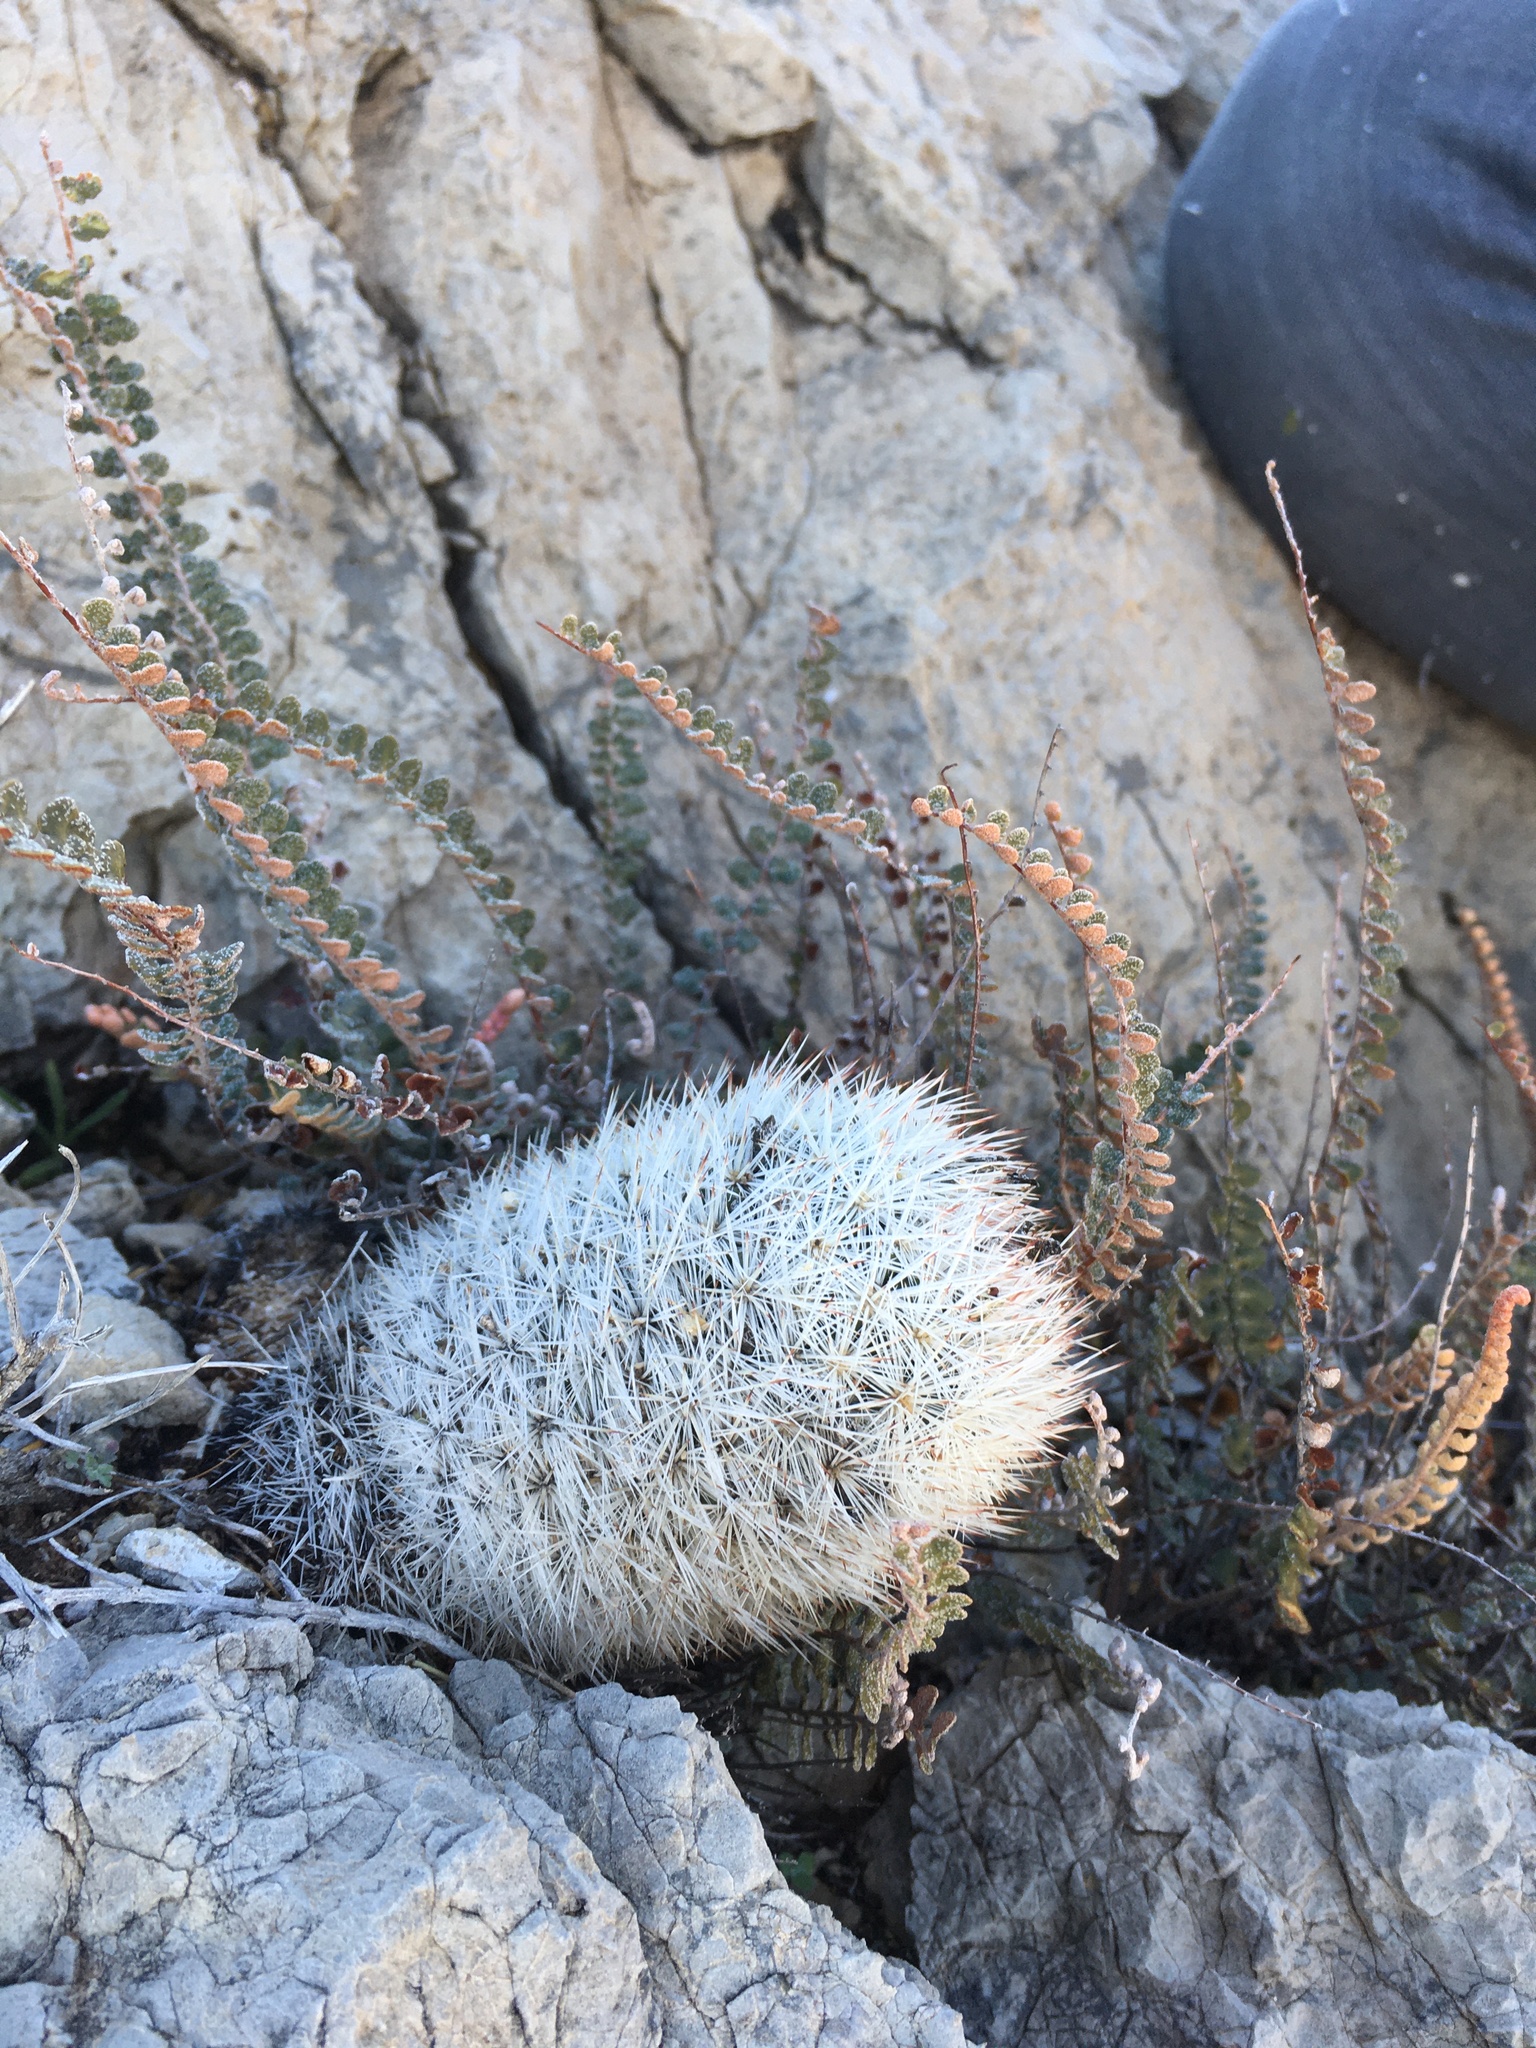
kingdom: Plantae
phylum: Tracheophyta
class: Magnoliopsida
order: Caryophyllales
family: Cactaceae
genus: Pelecyphora
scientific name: Pelecyphora sneedii
